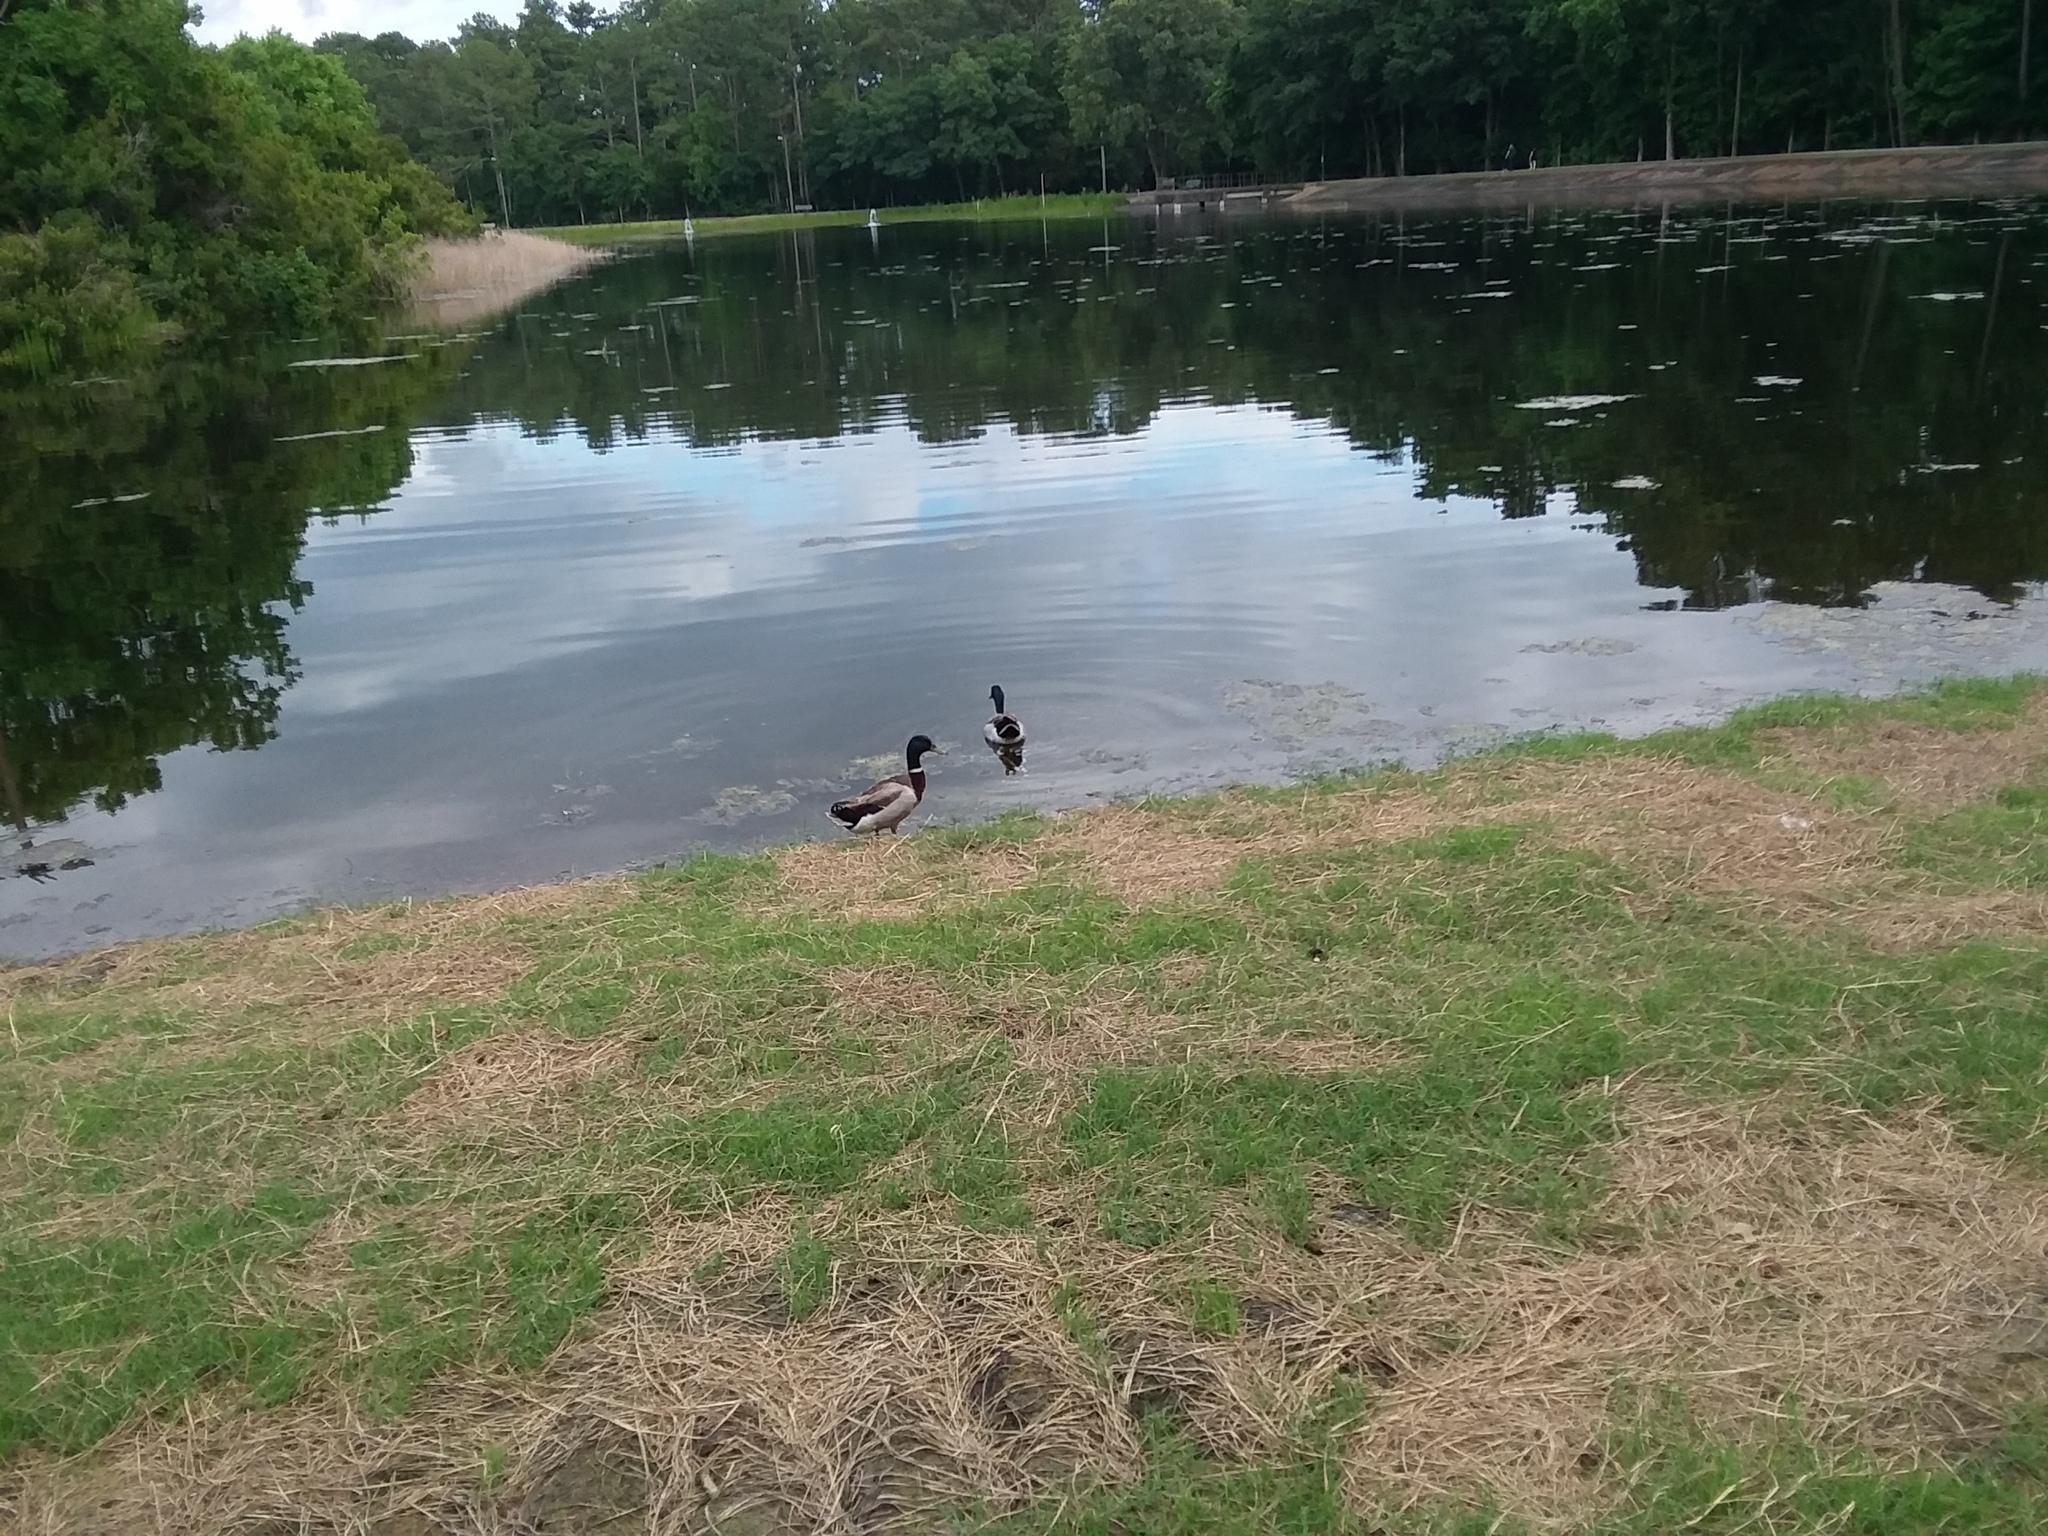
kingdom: Animalia
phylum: Chordata
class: Aves
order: Anseriformes
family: Anatidae
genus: Anas
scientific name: Anas platyrhynchos
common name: Mallard
